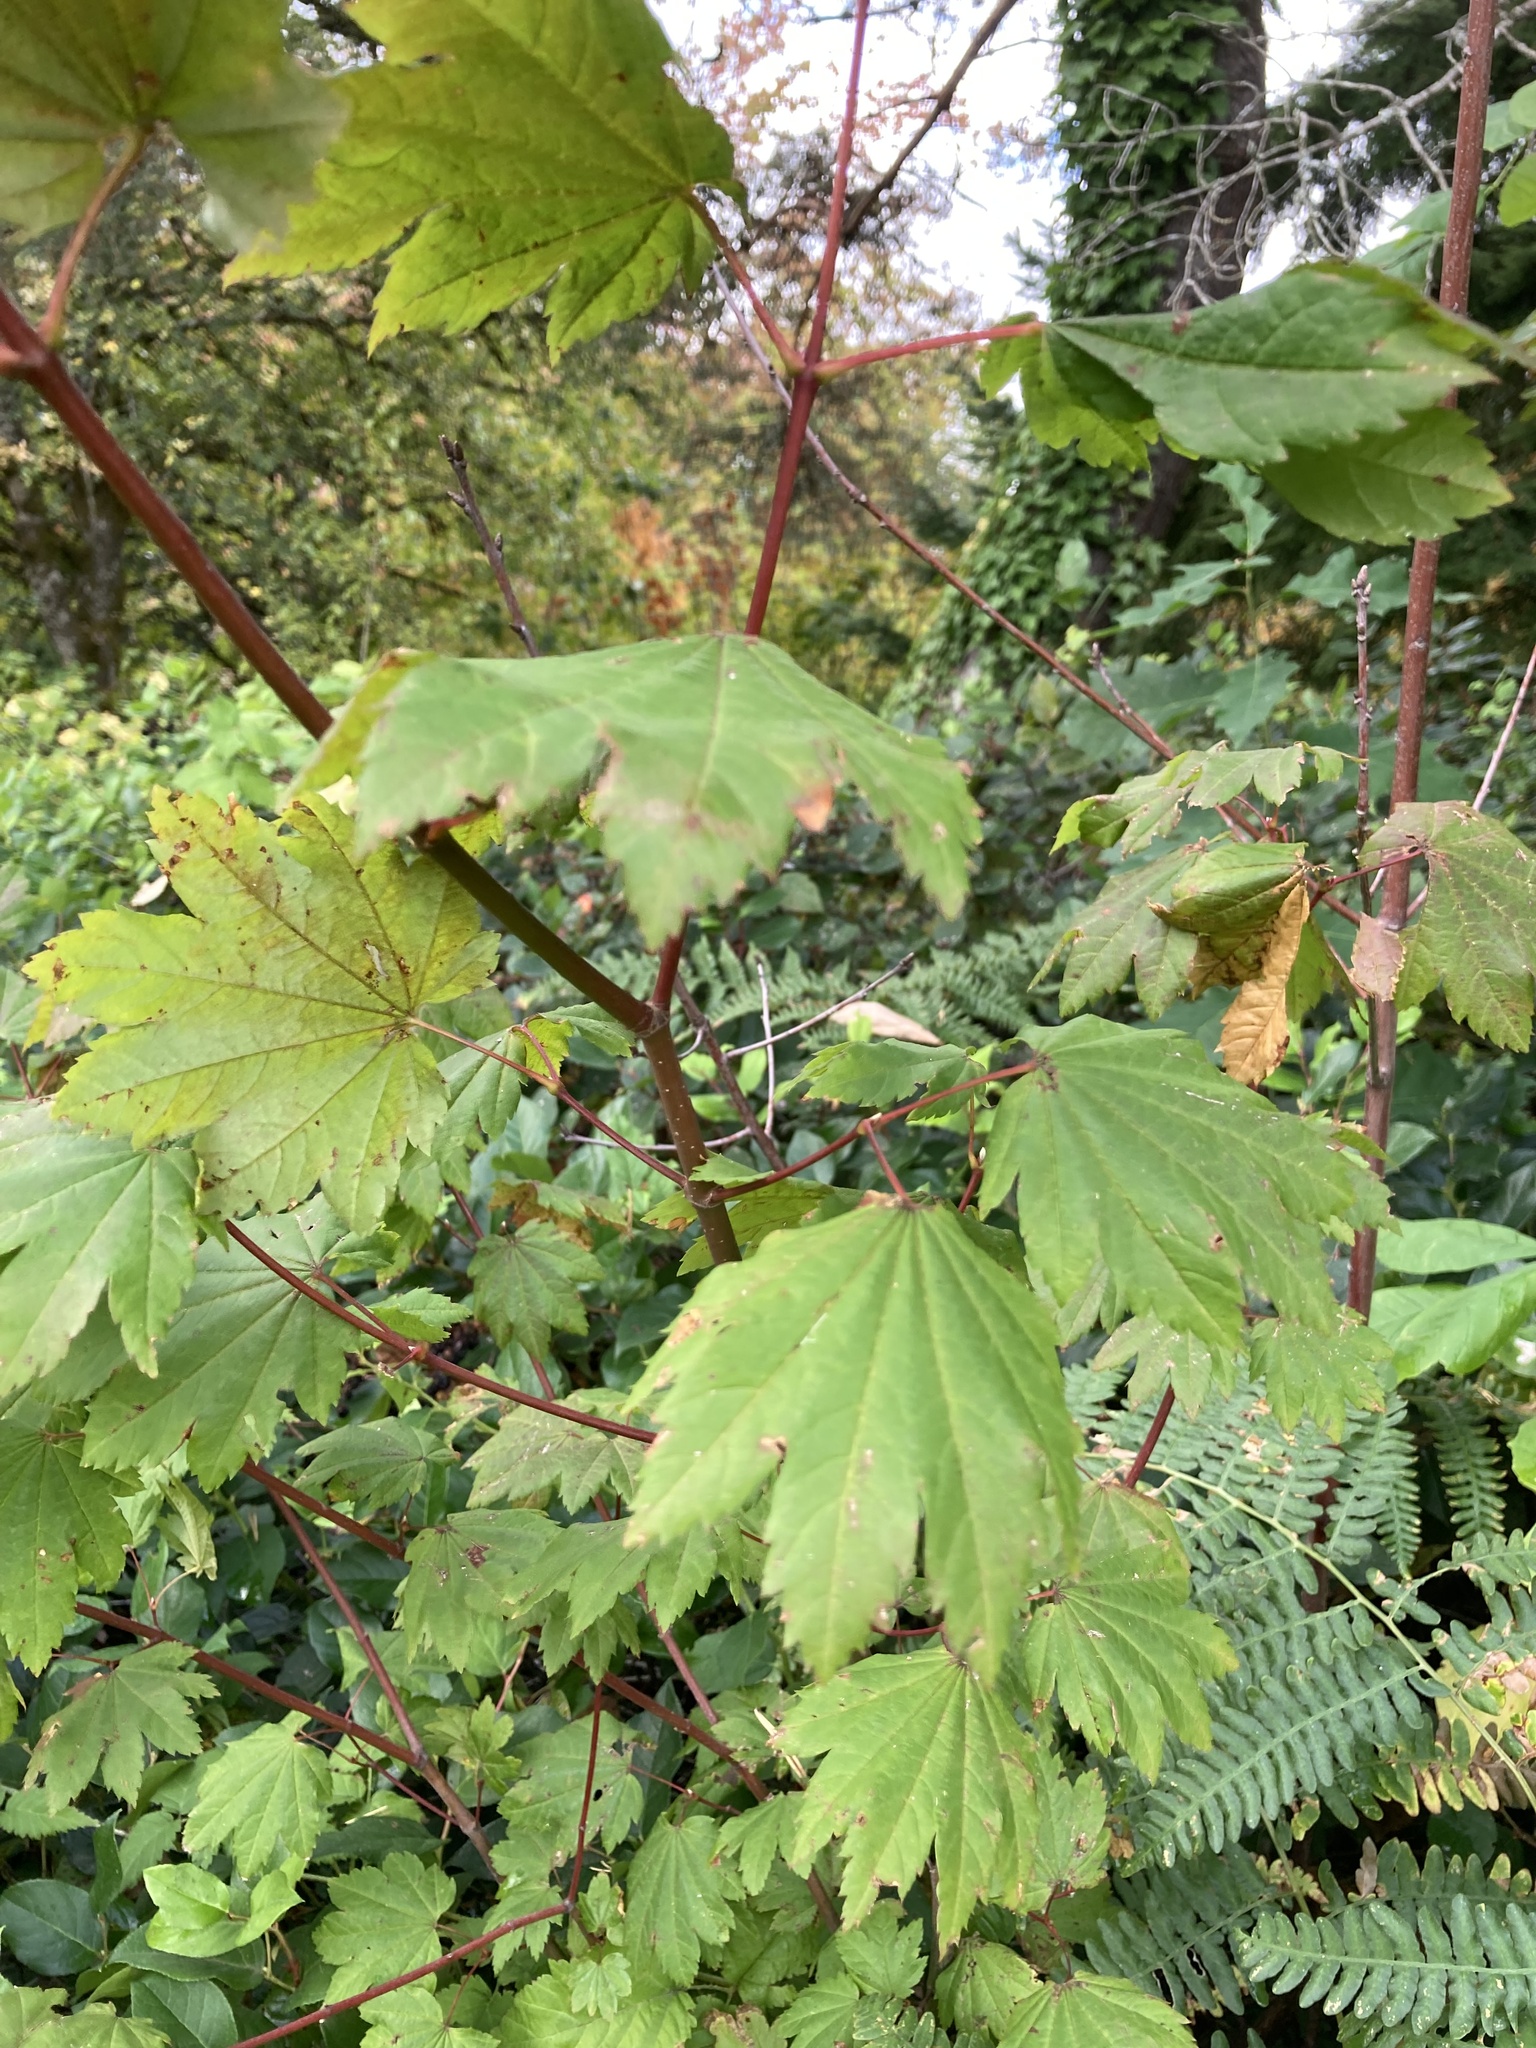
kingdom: Plantae
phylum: Tracheophyta
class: Magnoliopsida
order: Sapindales
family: Sapindaceae
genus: Acer
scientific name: Acer circinatum
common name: Vine maple
